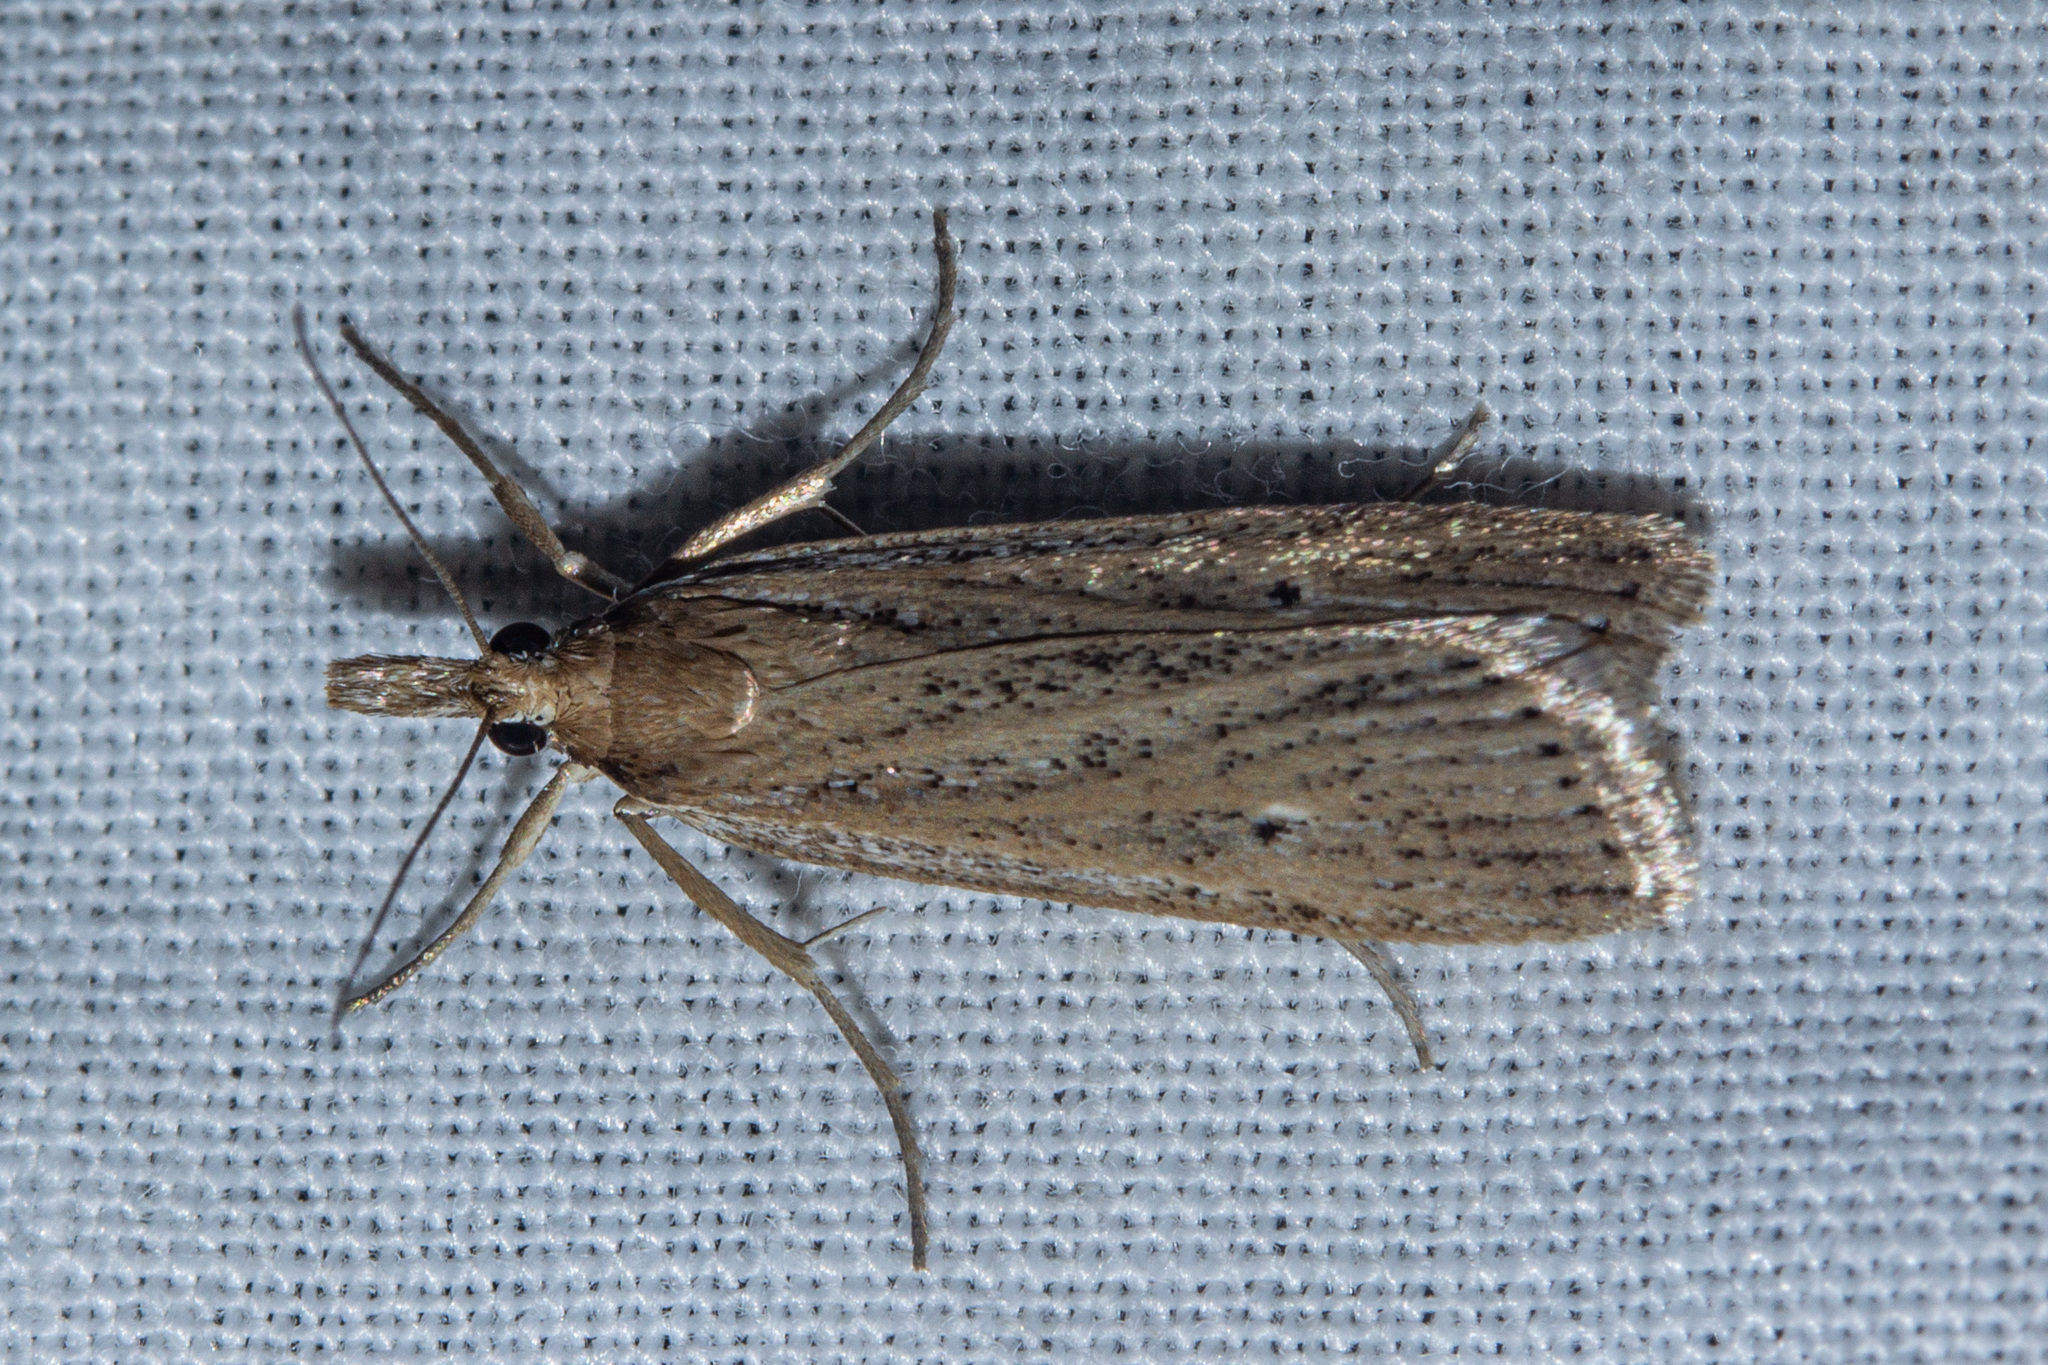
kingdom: Animalia
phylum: Arthropoda
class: Insecta
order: Lepidoptera
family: Crambidae
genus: Eudonia
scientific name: Eudonia sabulosella
